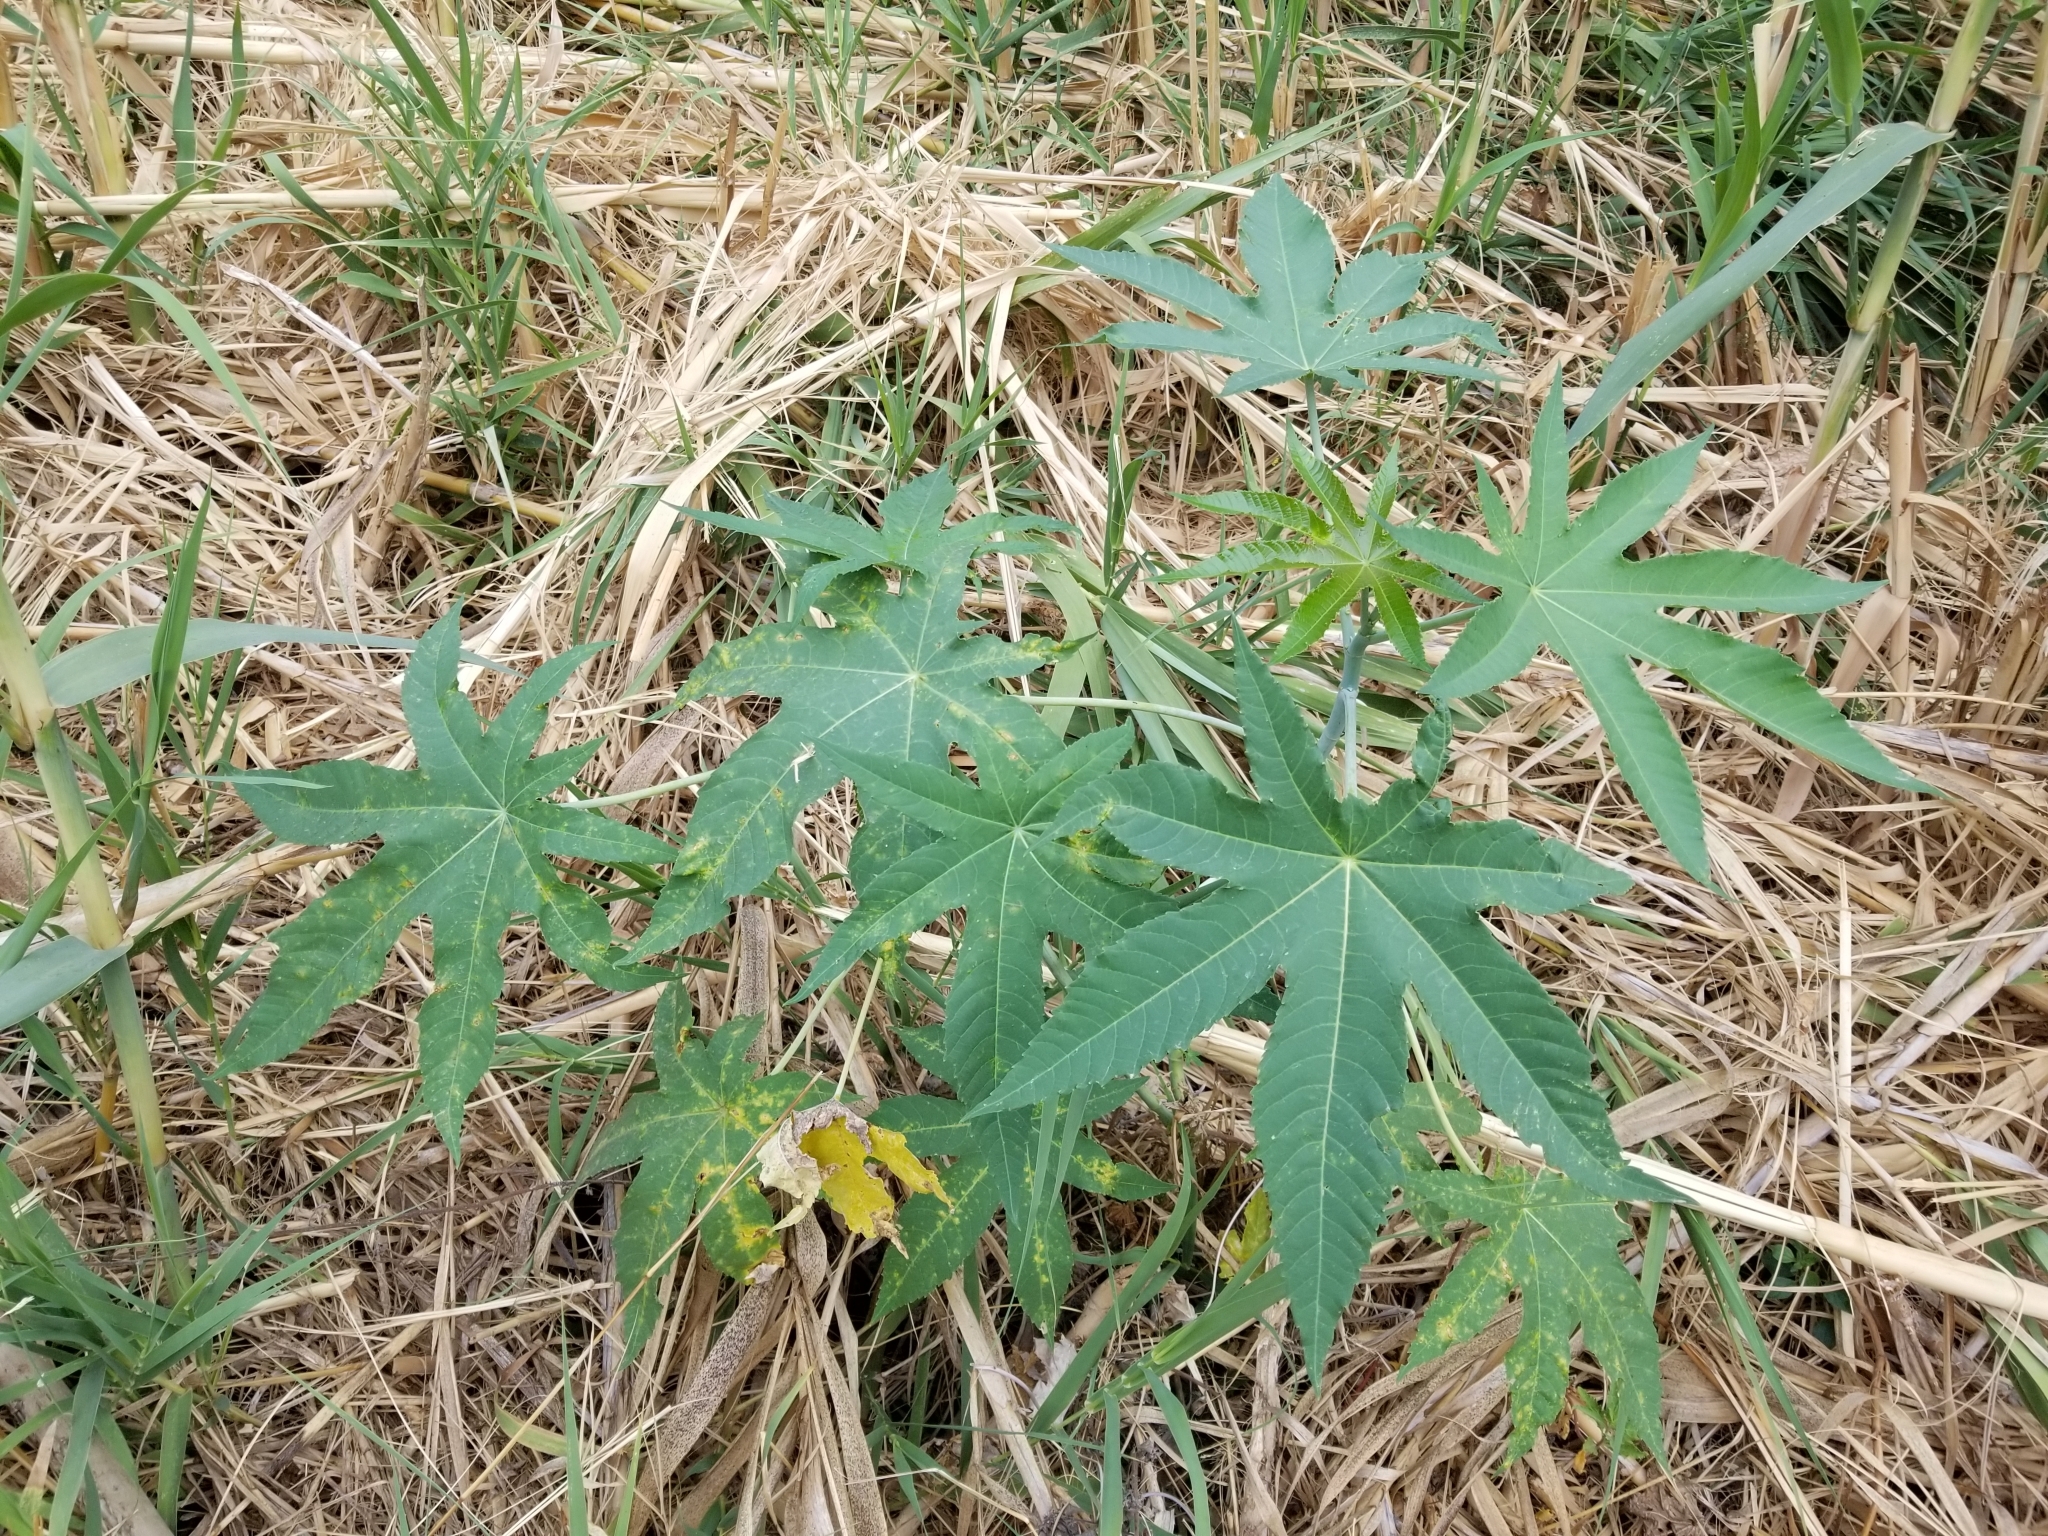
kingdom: Plantae
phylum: Tracheophyta
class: Magnoliopsida
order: Malpighiales
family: Euphorbiaceae
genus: Ricinus
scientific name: Ricinus communis
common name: Castor-oil-plant
